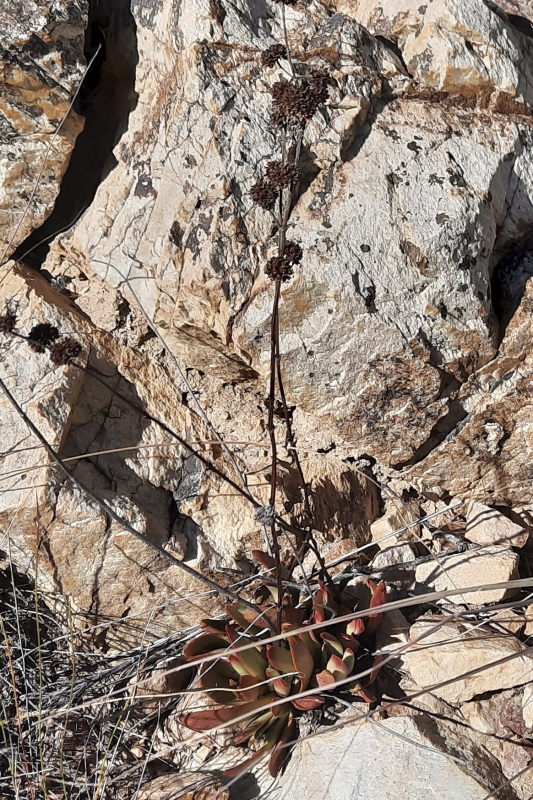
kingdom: Plantae
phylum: Tracheophyta
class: Magnoliopsida
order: Saxifragales
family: Crassulaceae
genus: Crassula
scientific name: Crassula nudicaulis
